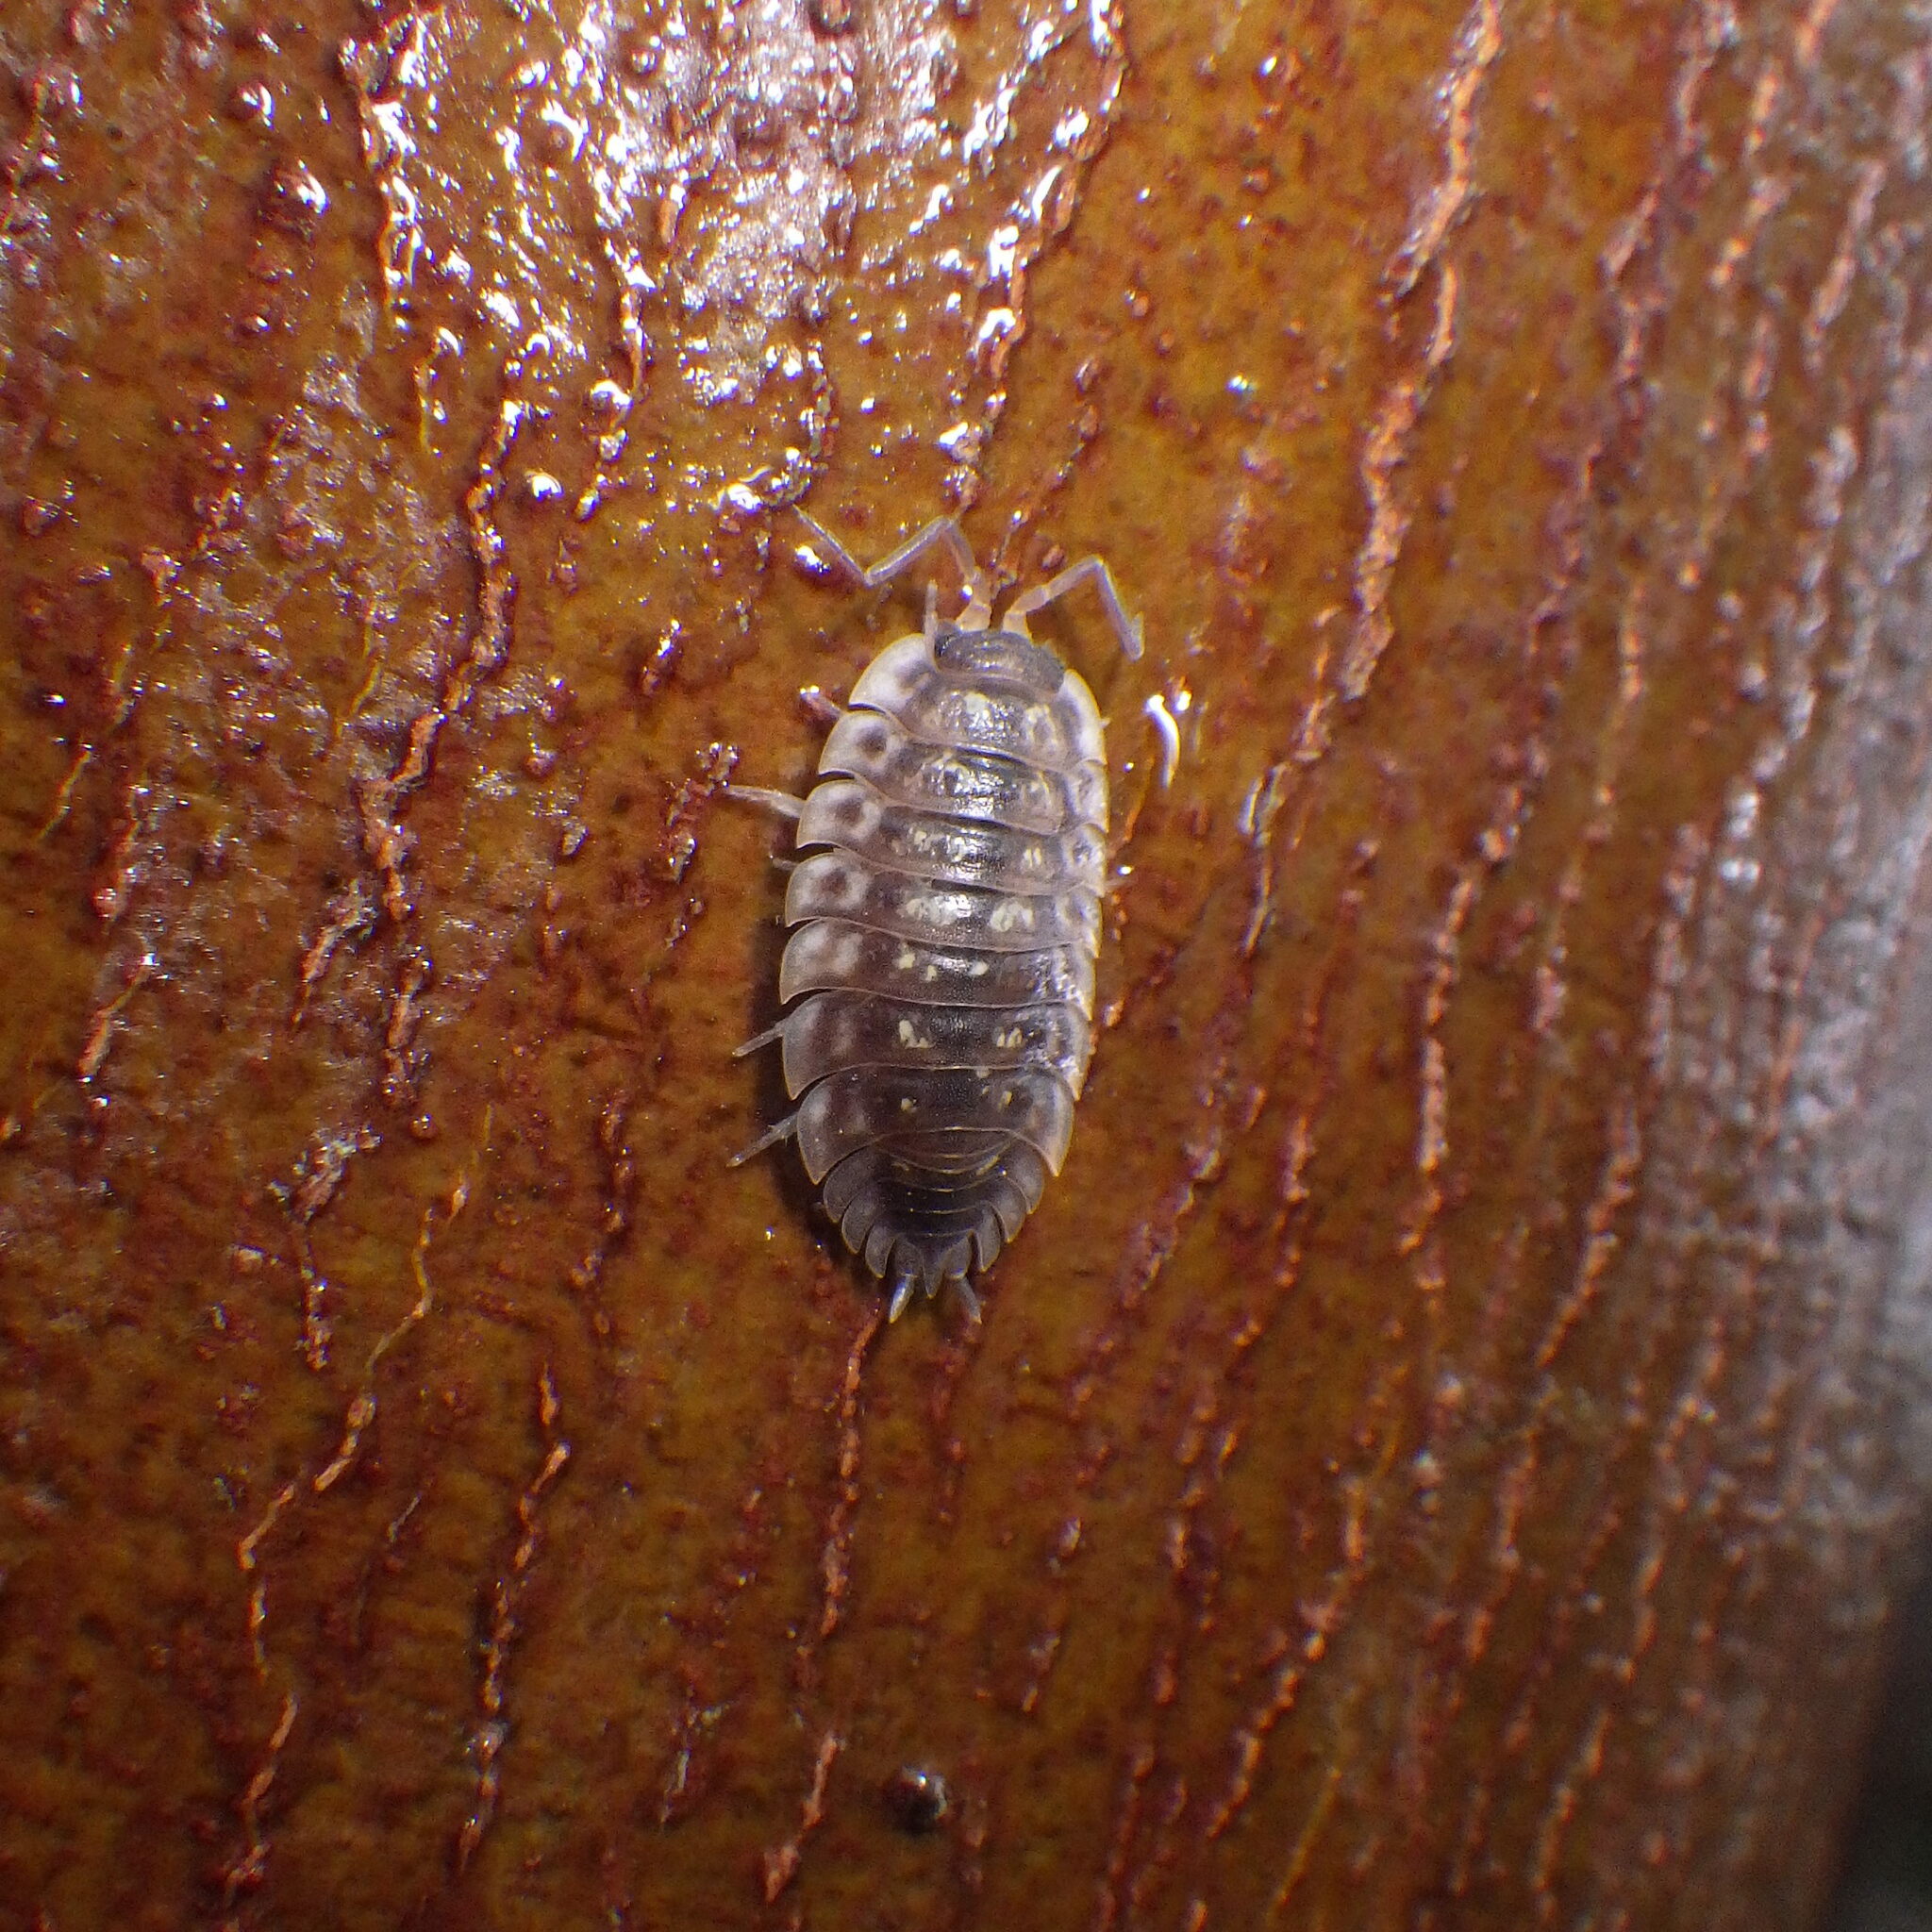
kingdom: Animalia
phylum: Arthropoda
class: Malacostraca
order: Isopoda
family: Oniscidae
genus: Oniscus
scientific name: Oniscus asellus
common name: Common shiny woodlouse
